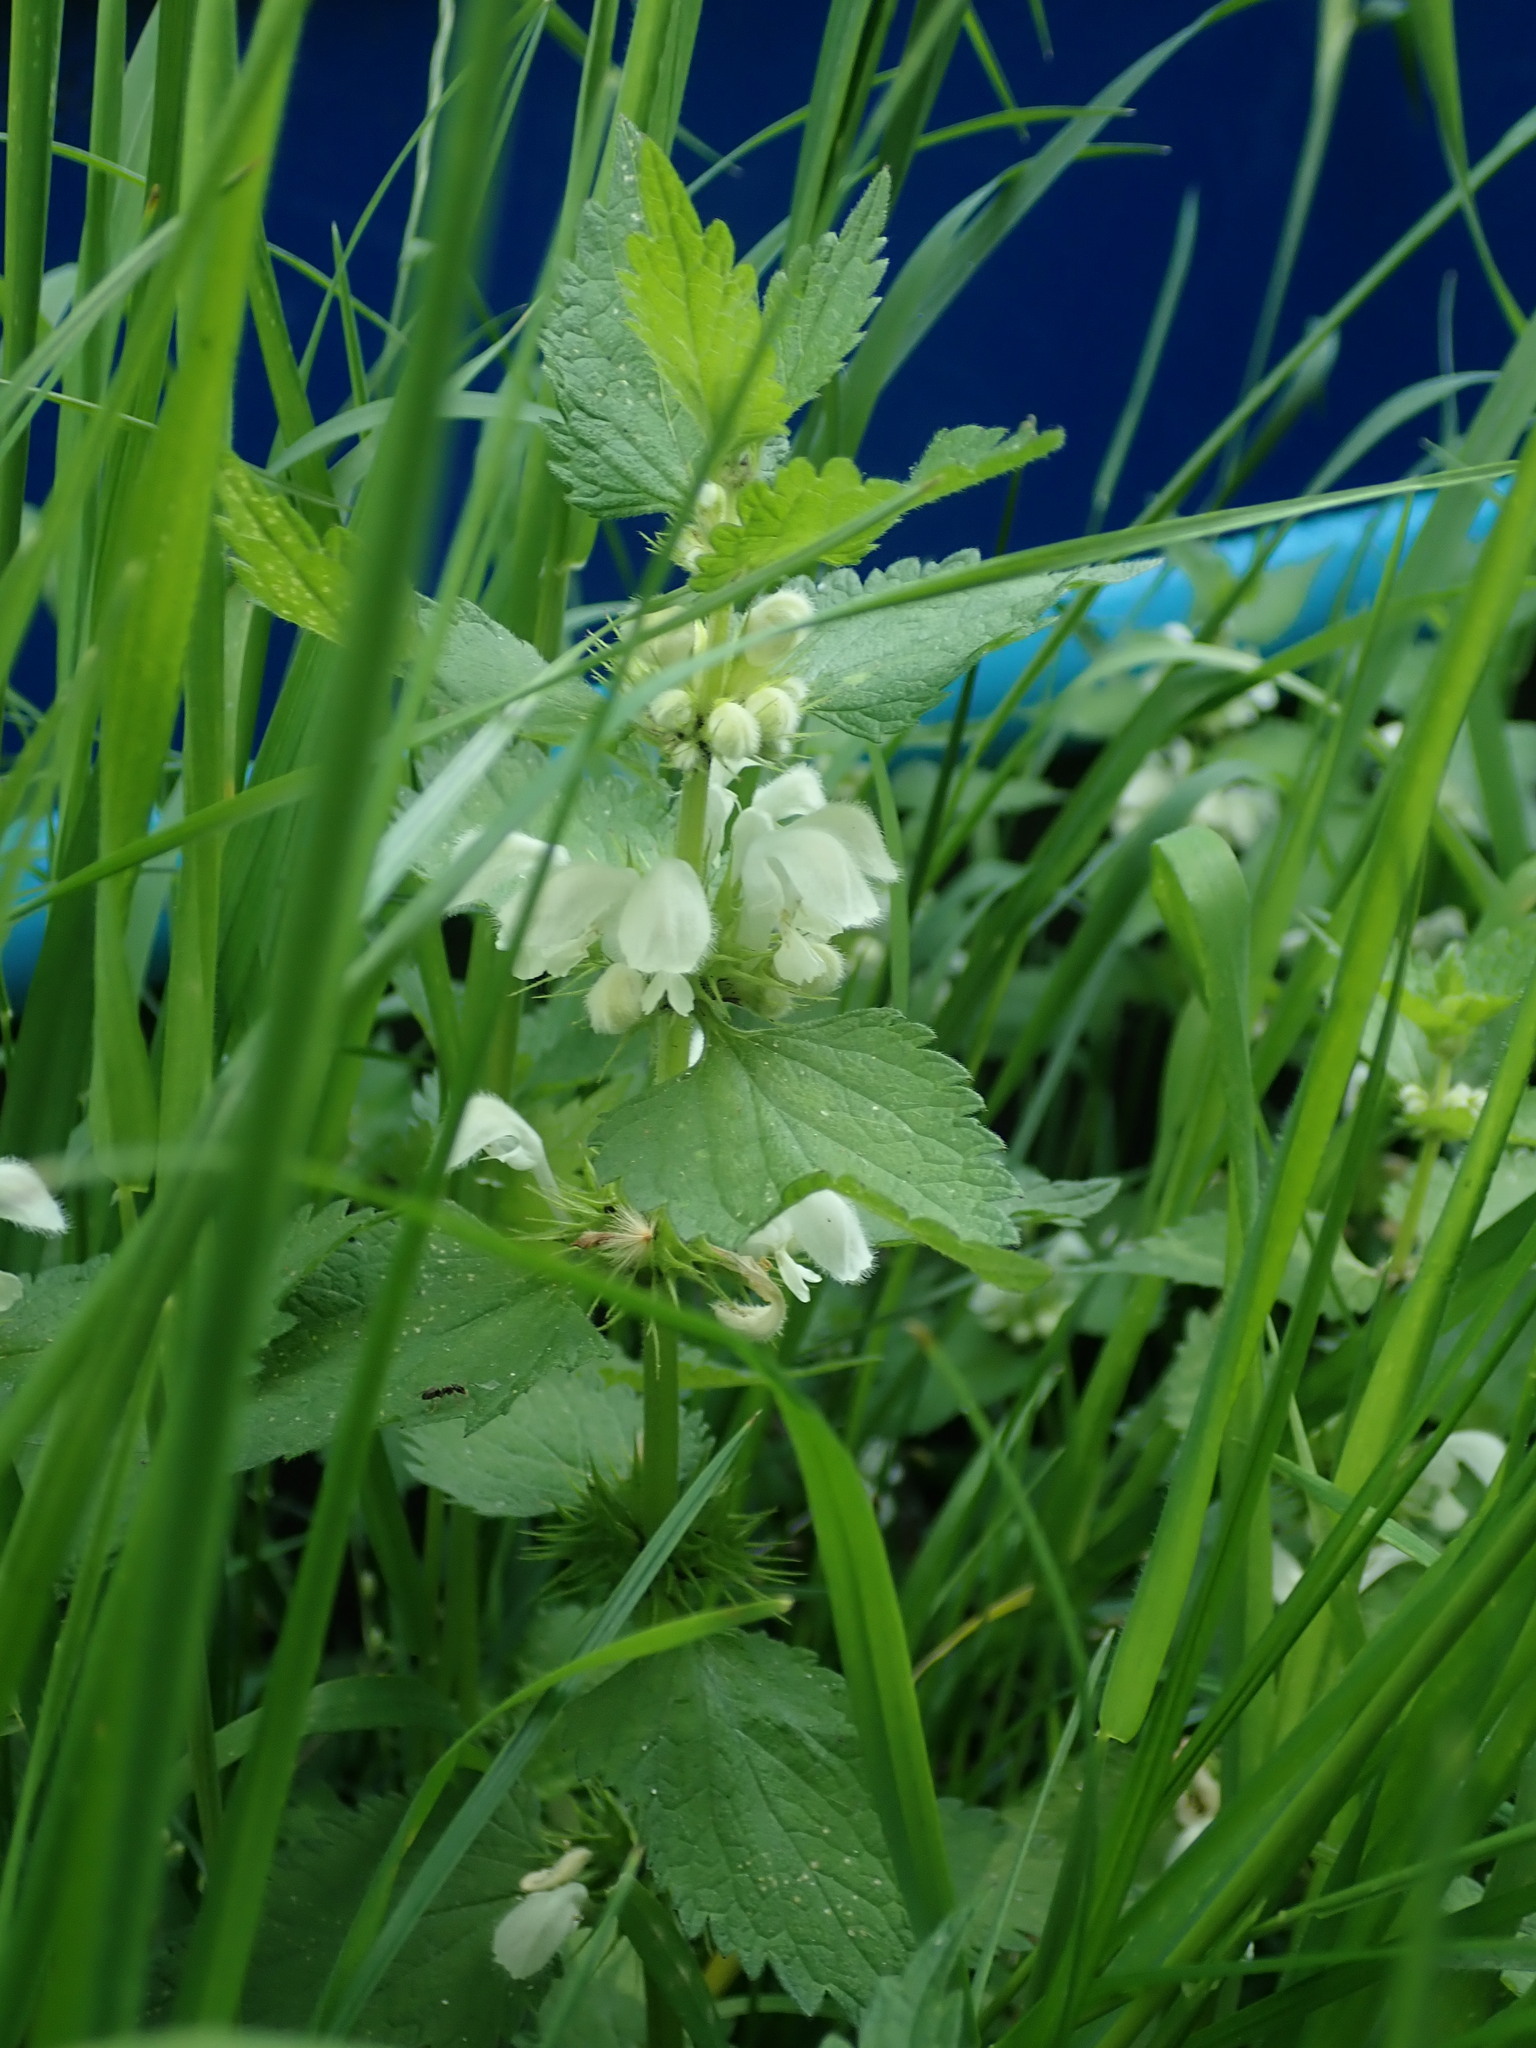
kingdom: Plantae
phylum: Tracheophyta
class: Magnoliopsida
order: Lamiales
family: Lamiaceae
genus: Lamium
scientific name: Lamium album
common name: White dead-nettle
